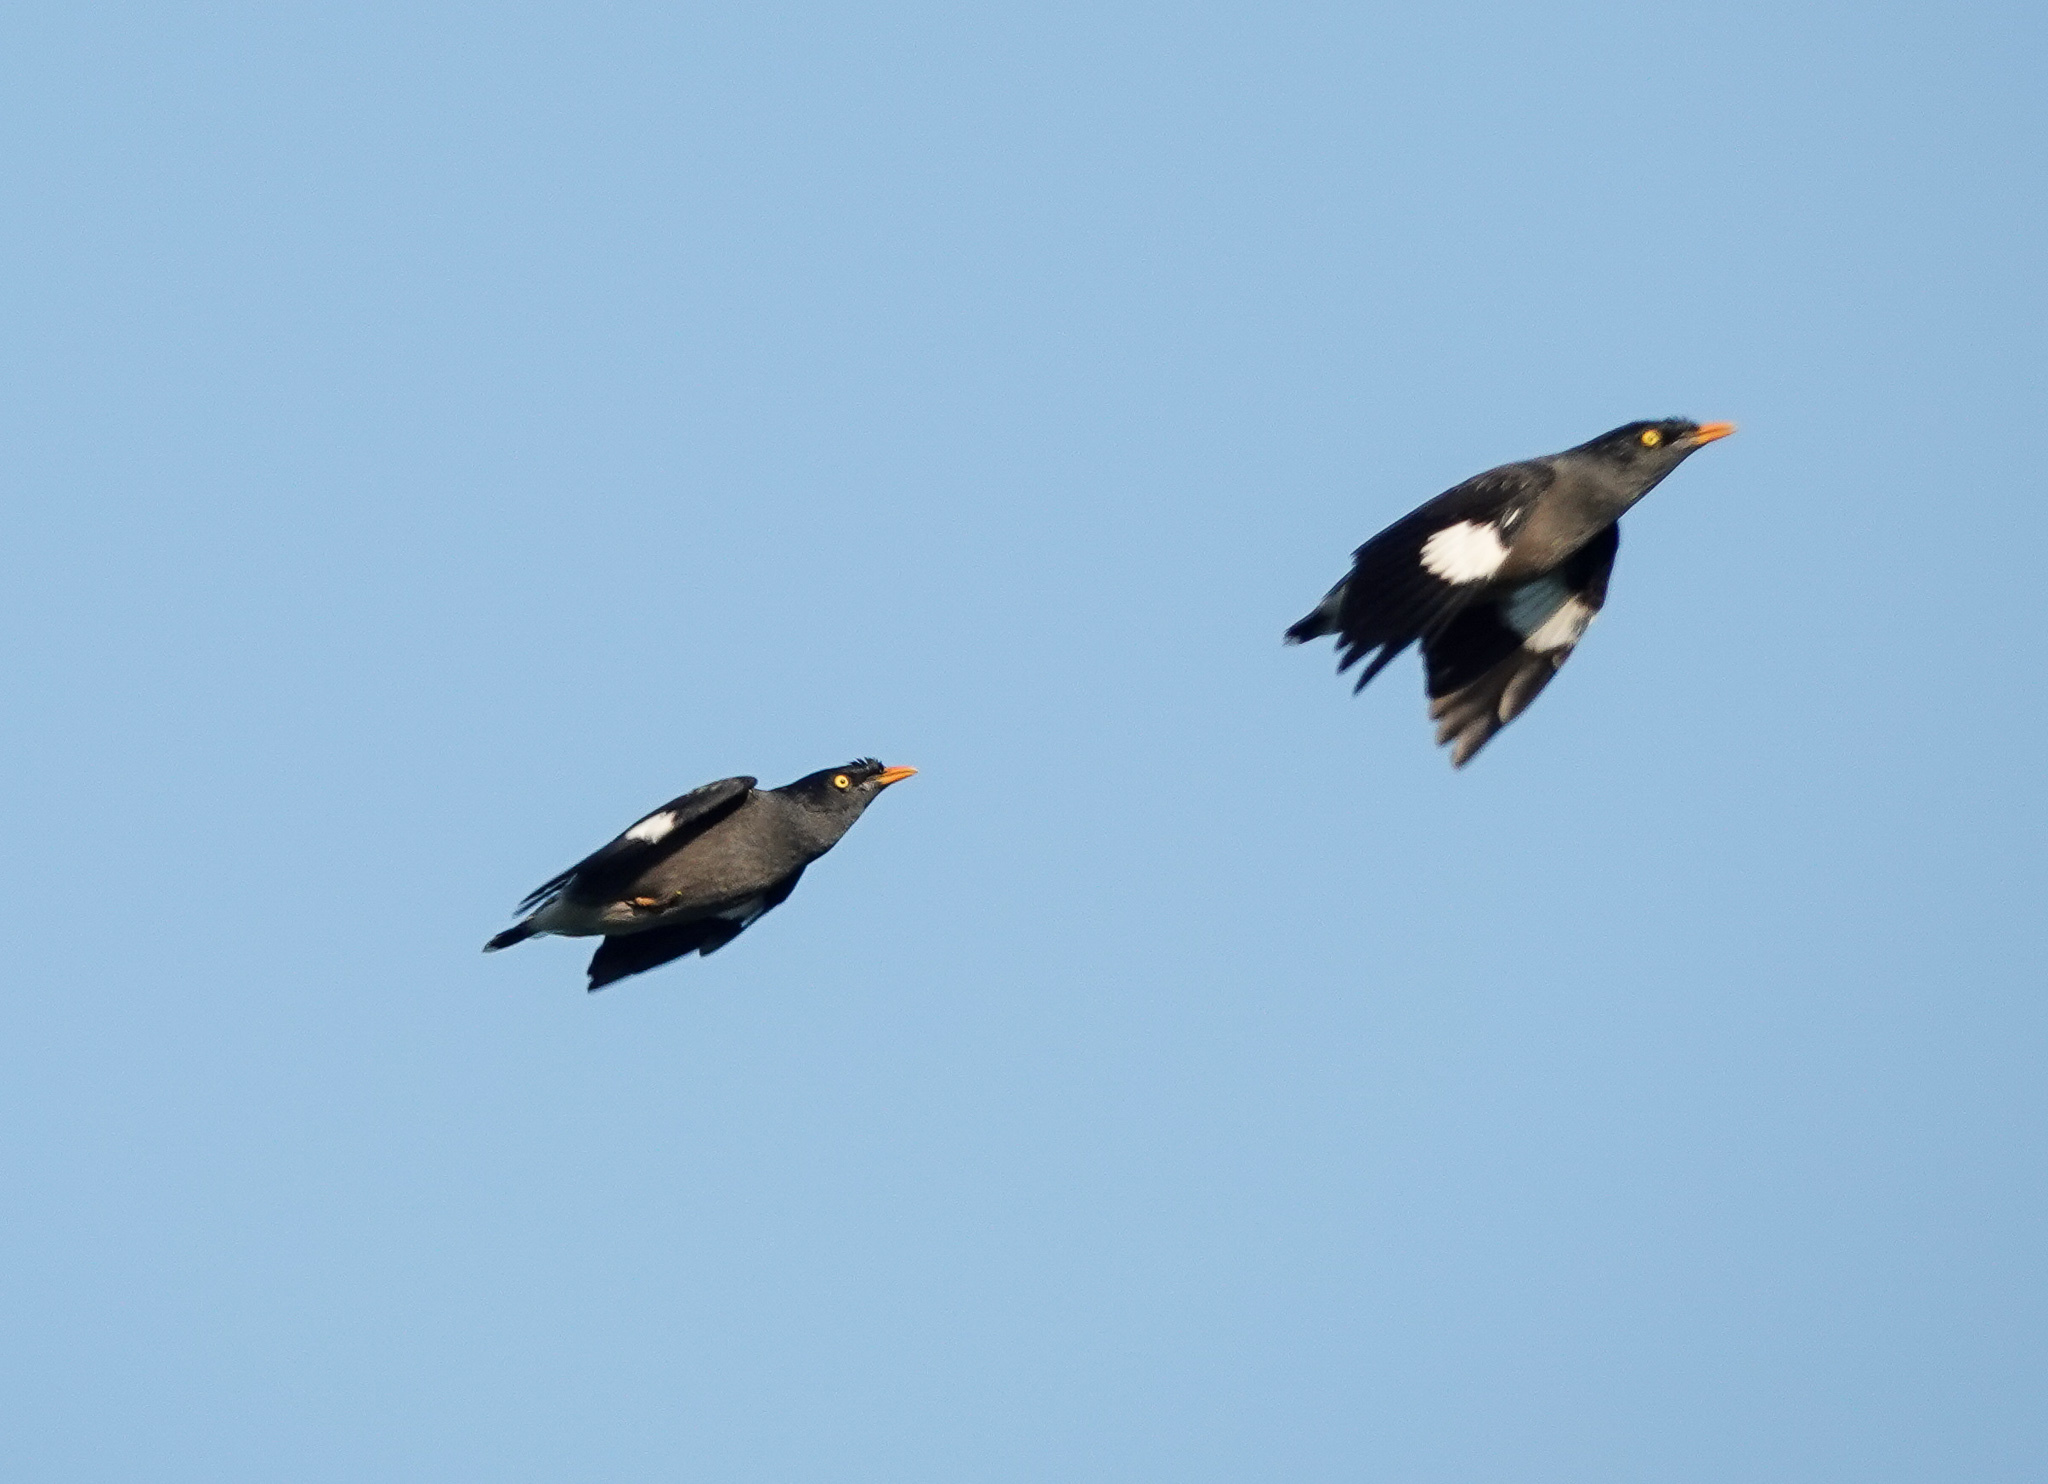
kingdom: Animalia
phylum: Chordata
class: Aves
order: Passeriformes
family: Sturnidae
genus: Acridotheres
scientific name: Acridotheres fuscus
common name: Jungle myna
